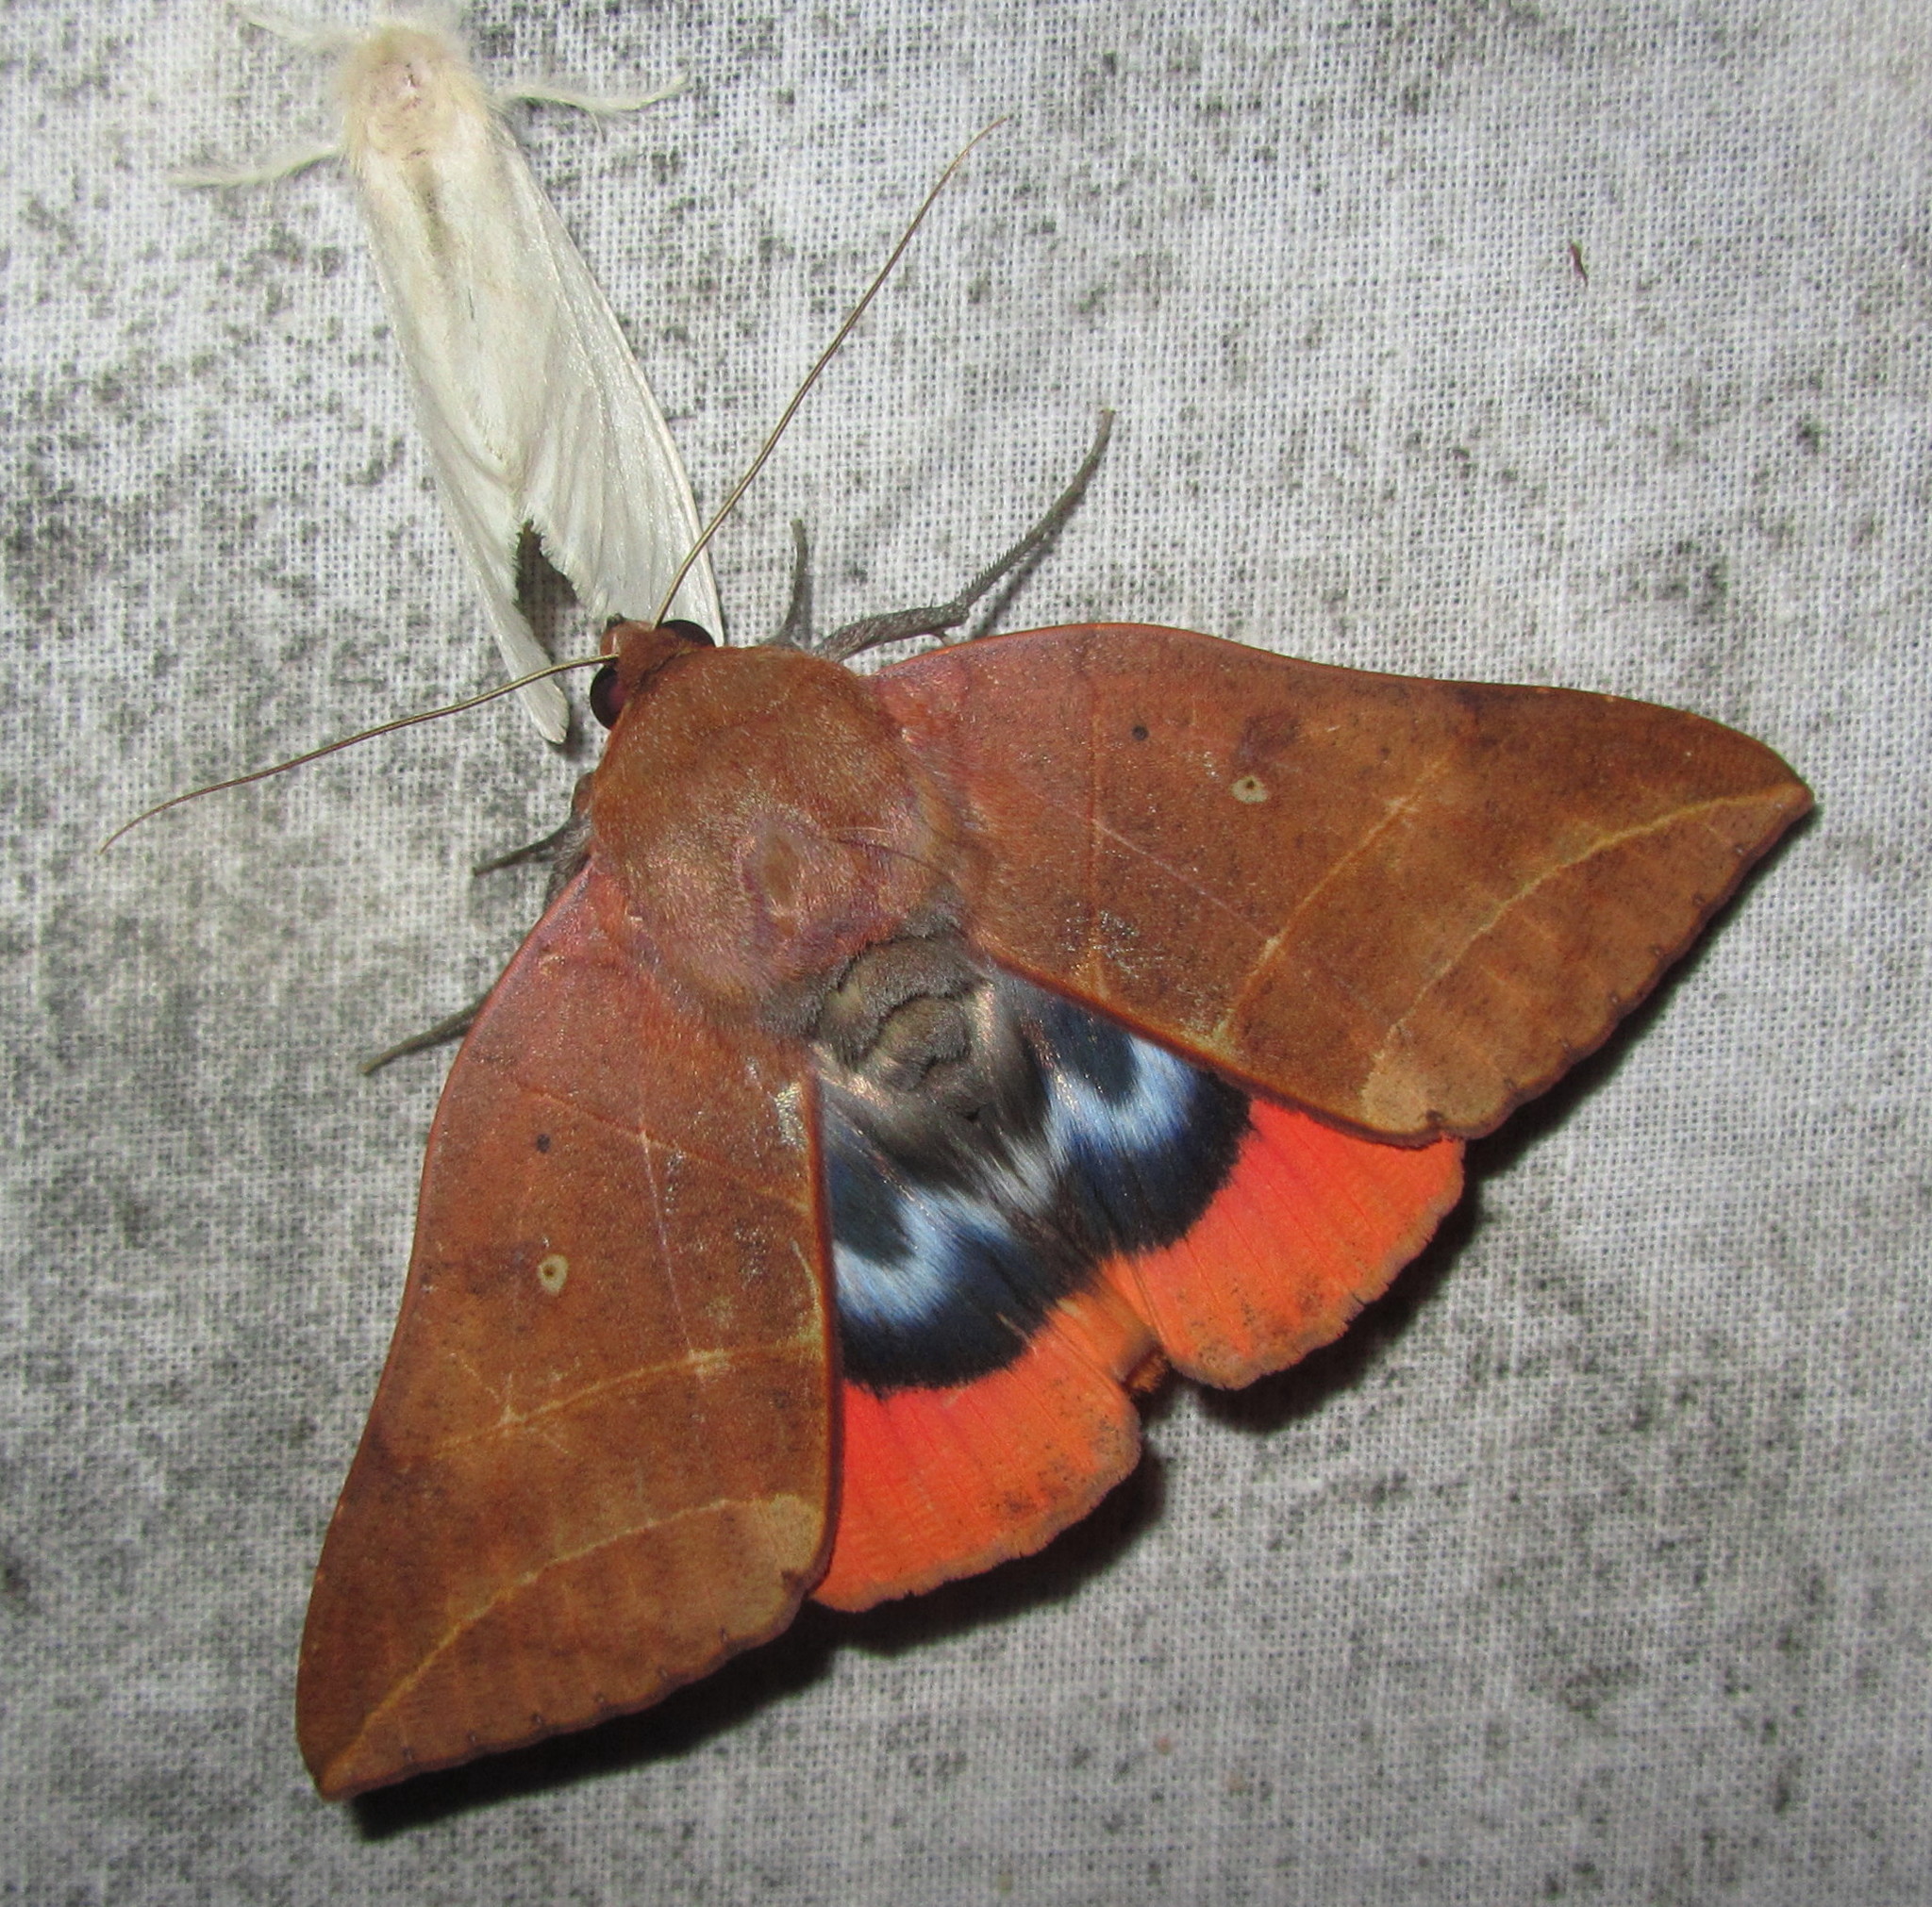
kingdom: Animalia
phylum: Arthropoda
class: Insecta
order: Lepidoptera
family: Erebidae
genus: Thyas
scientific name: Thyas juno
